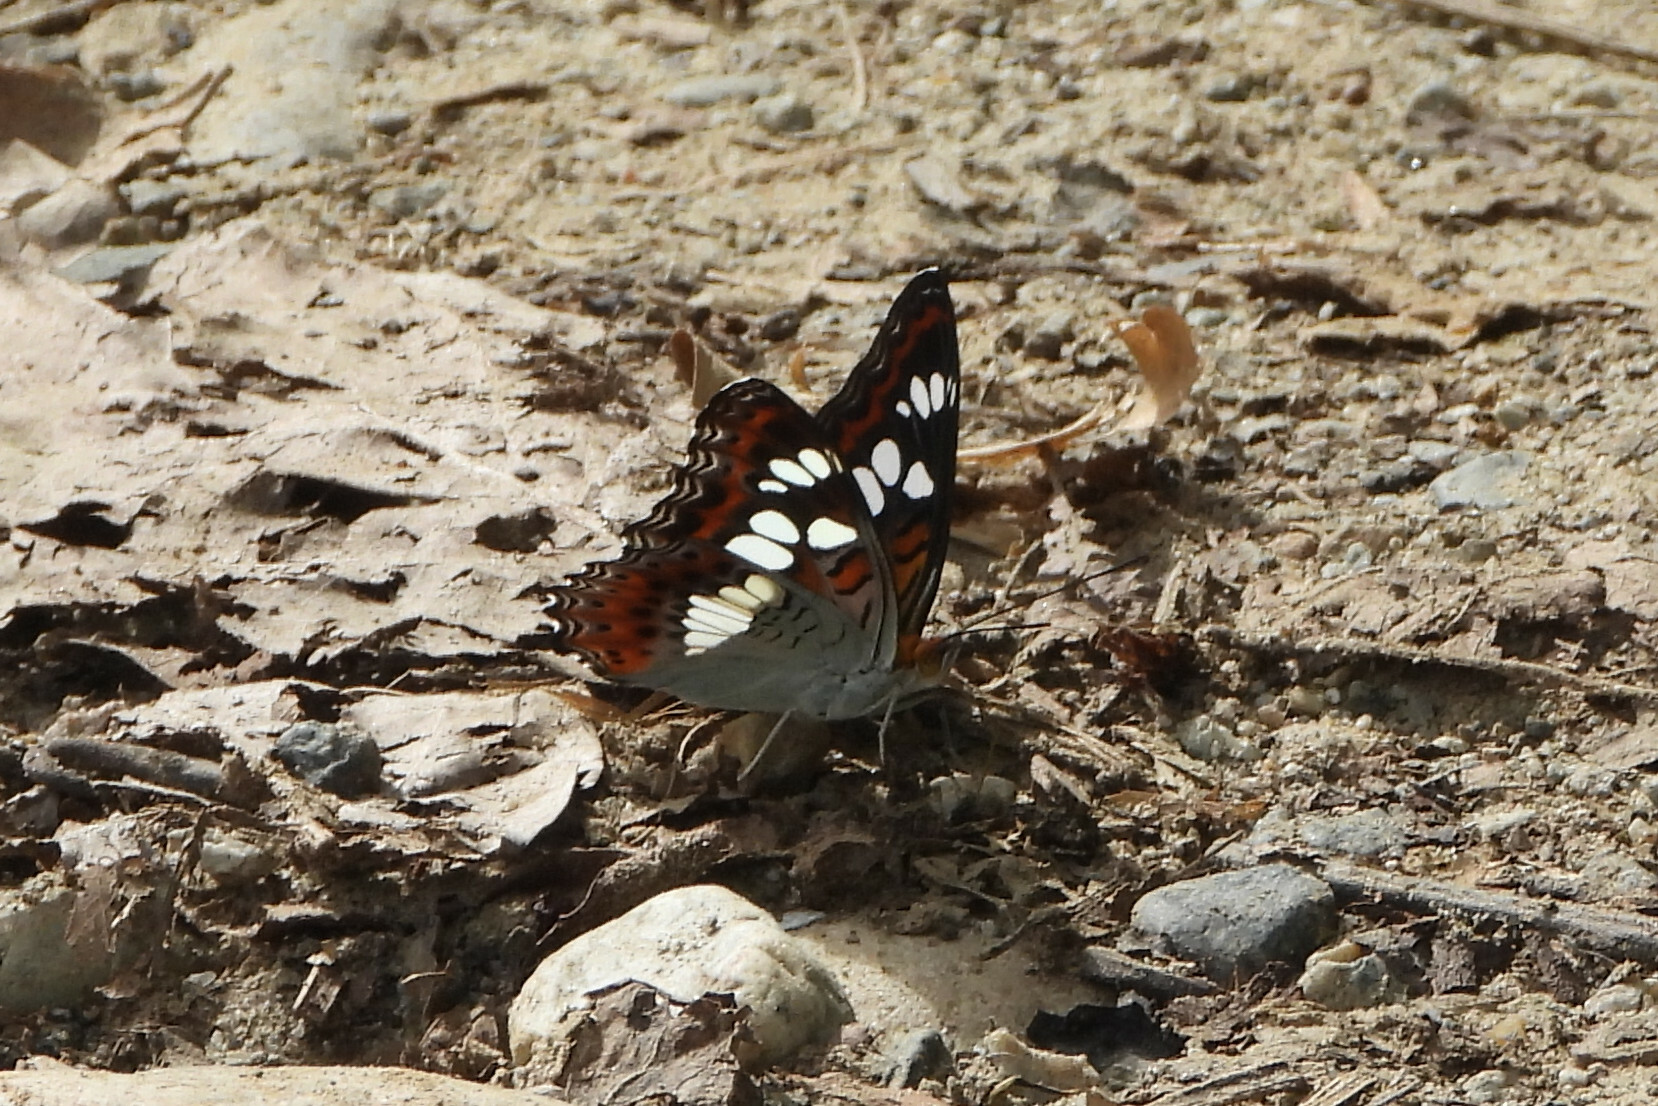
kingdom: Animalia
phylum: Arthropoda
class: Insecta
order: Lepidoptera
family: Nymphalidae
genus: Limenitis
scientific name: Limenitis Moduza procris
